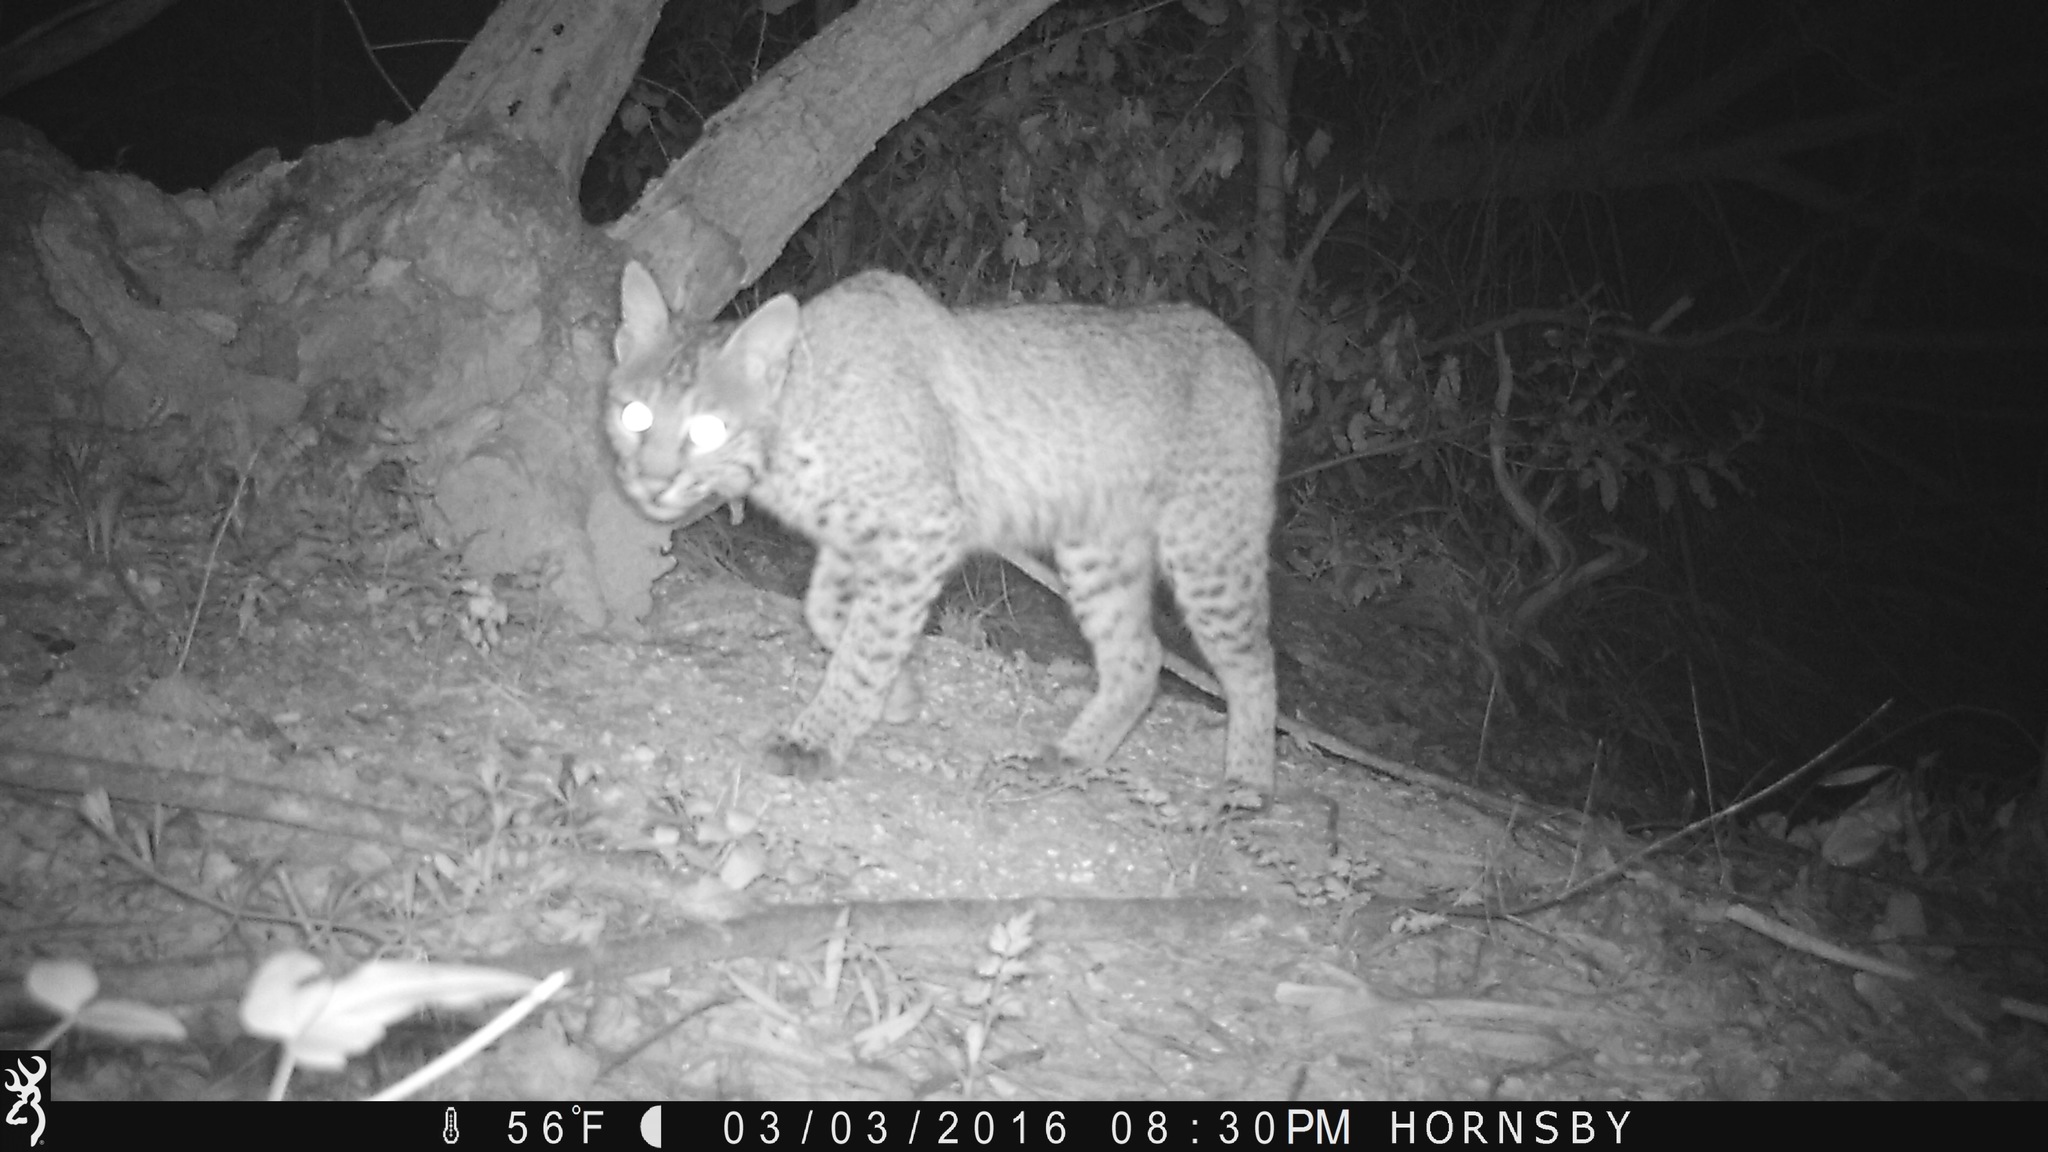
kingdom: Animalia
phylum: Chordata
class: Mammalia
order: Carnivora
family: Felidae
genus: Lynx
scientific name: Lynx rufus
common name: Bobcat
